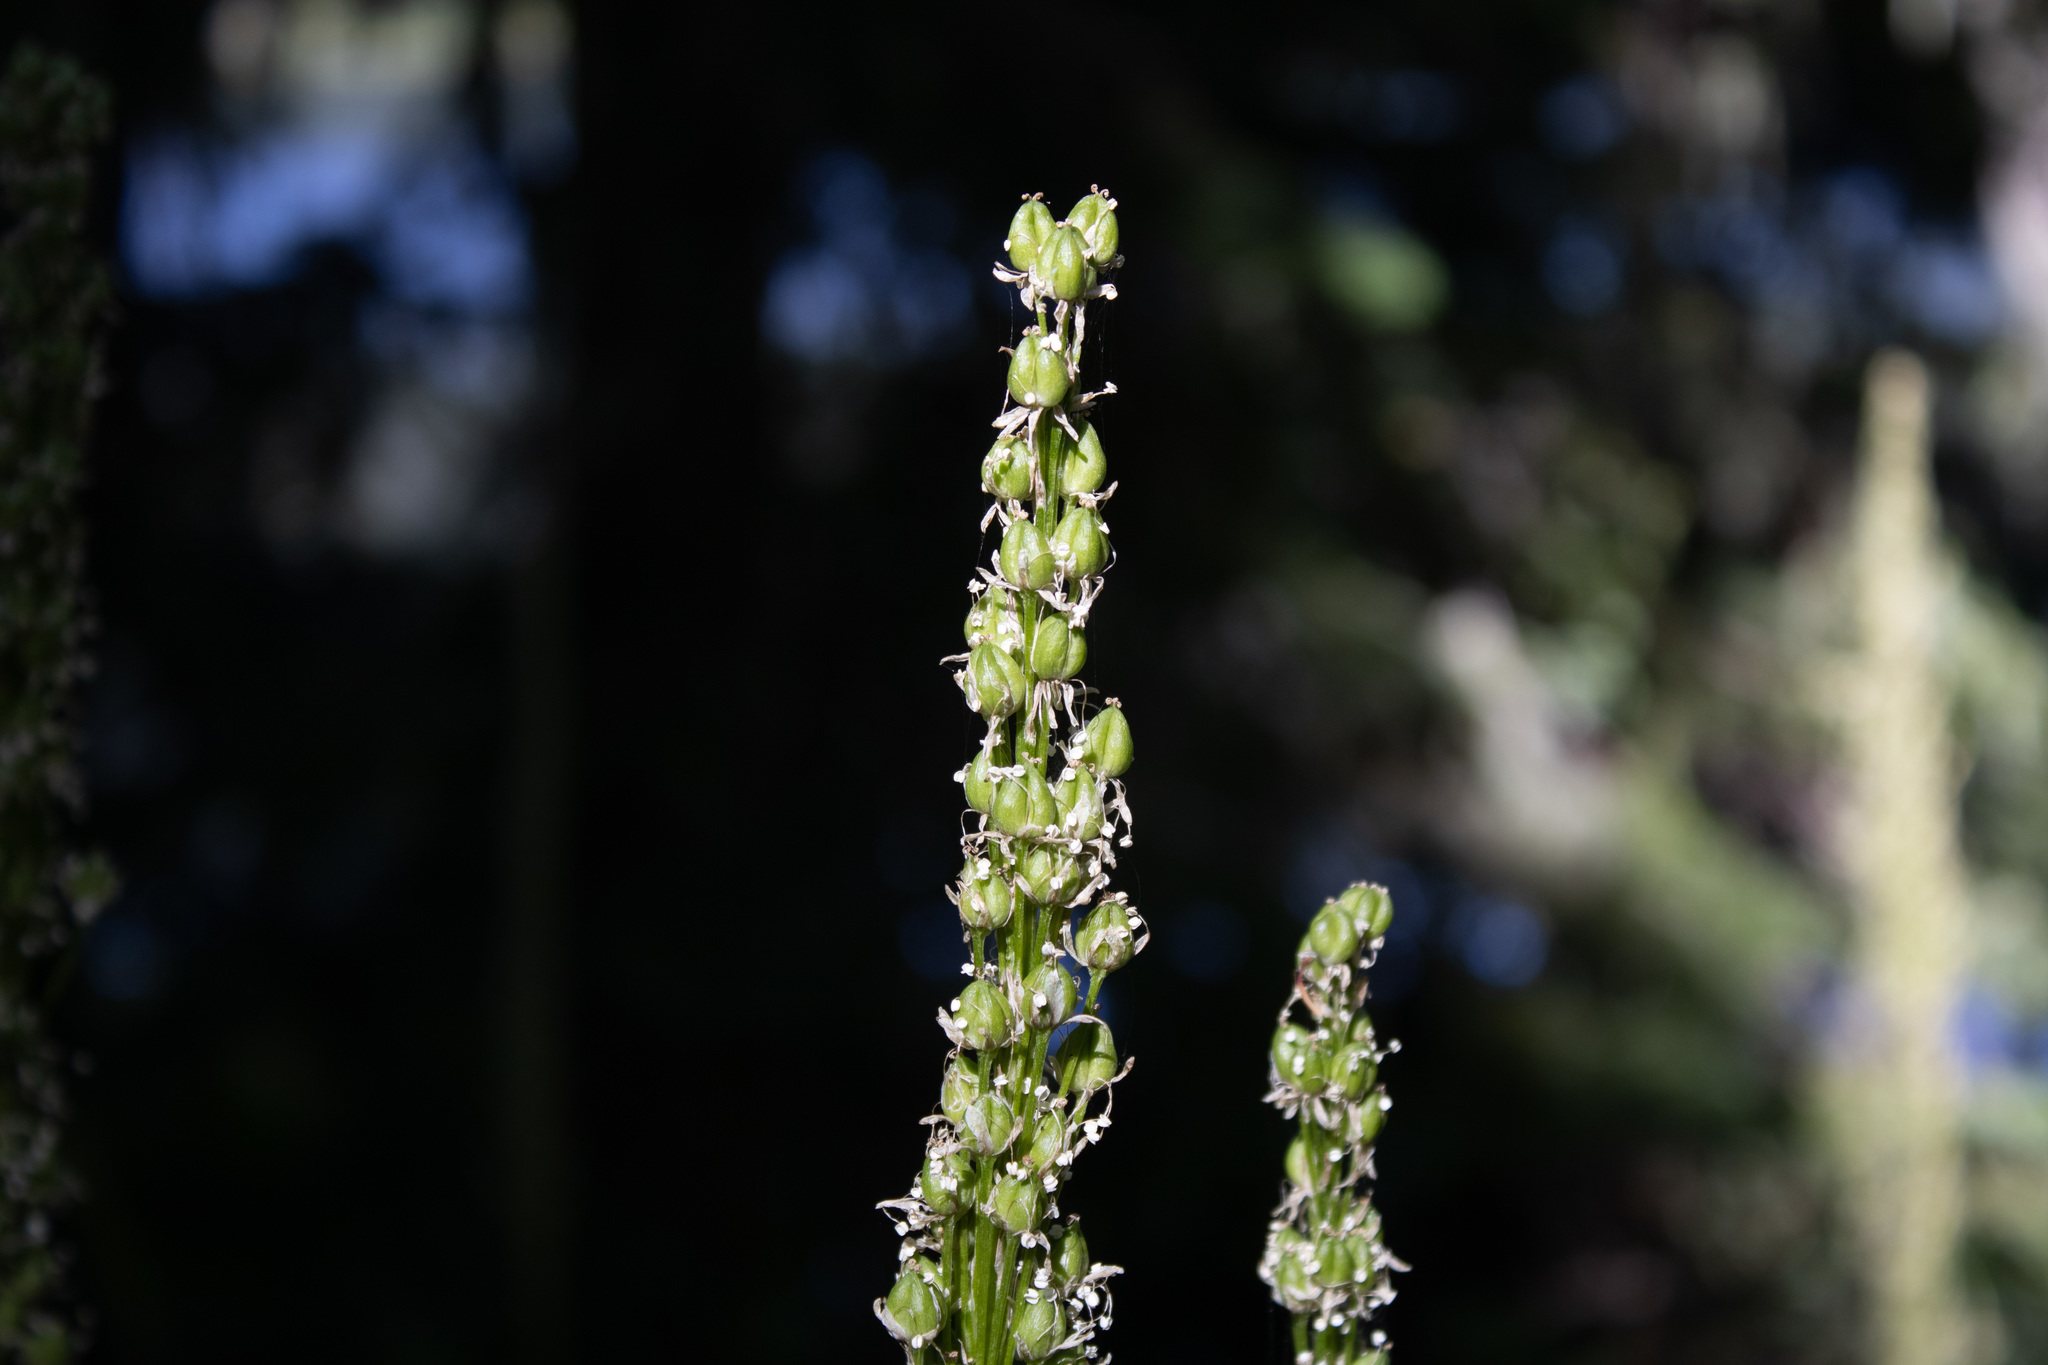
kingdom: Plantae
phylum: Tracheophyta
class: Liliopsida
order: Liliales
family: Melanthiaceae
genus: Xerophyllum
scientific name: Xerophyllum tenax
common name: Bear-grass
